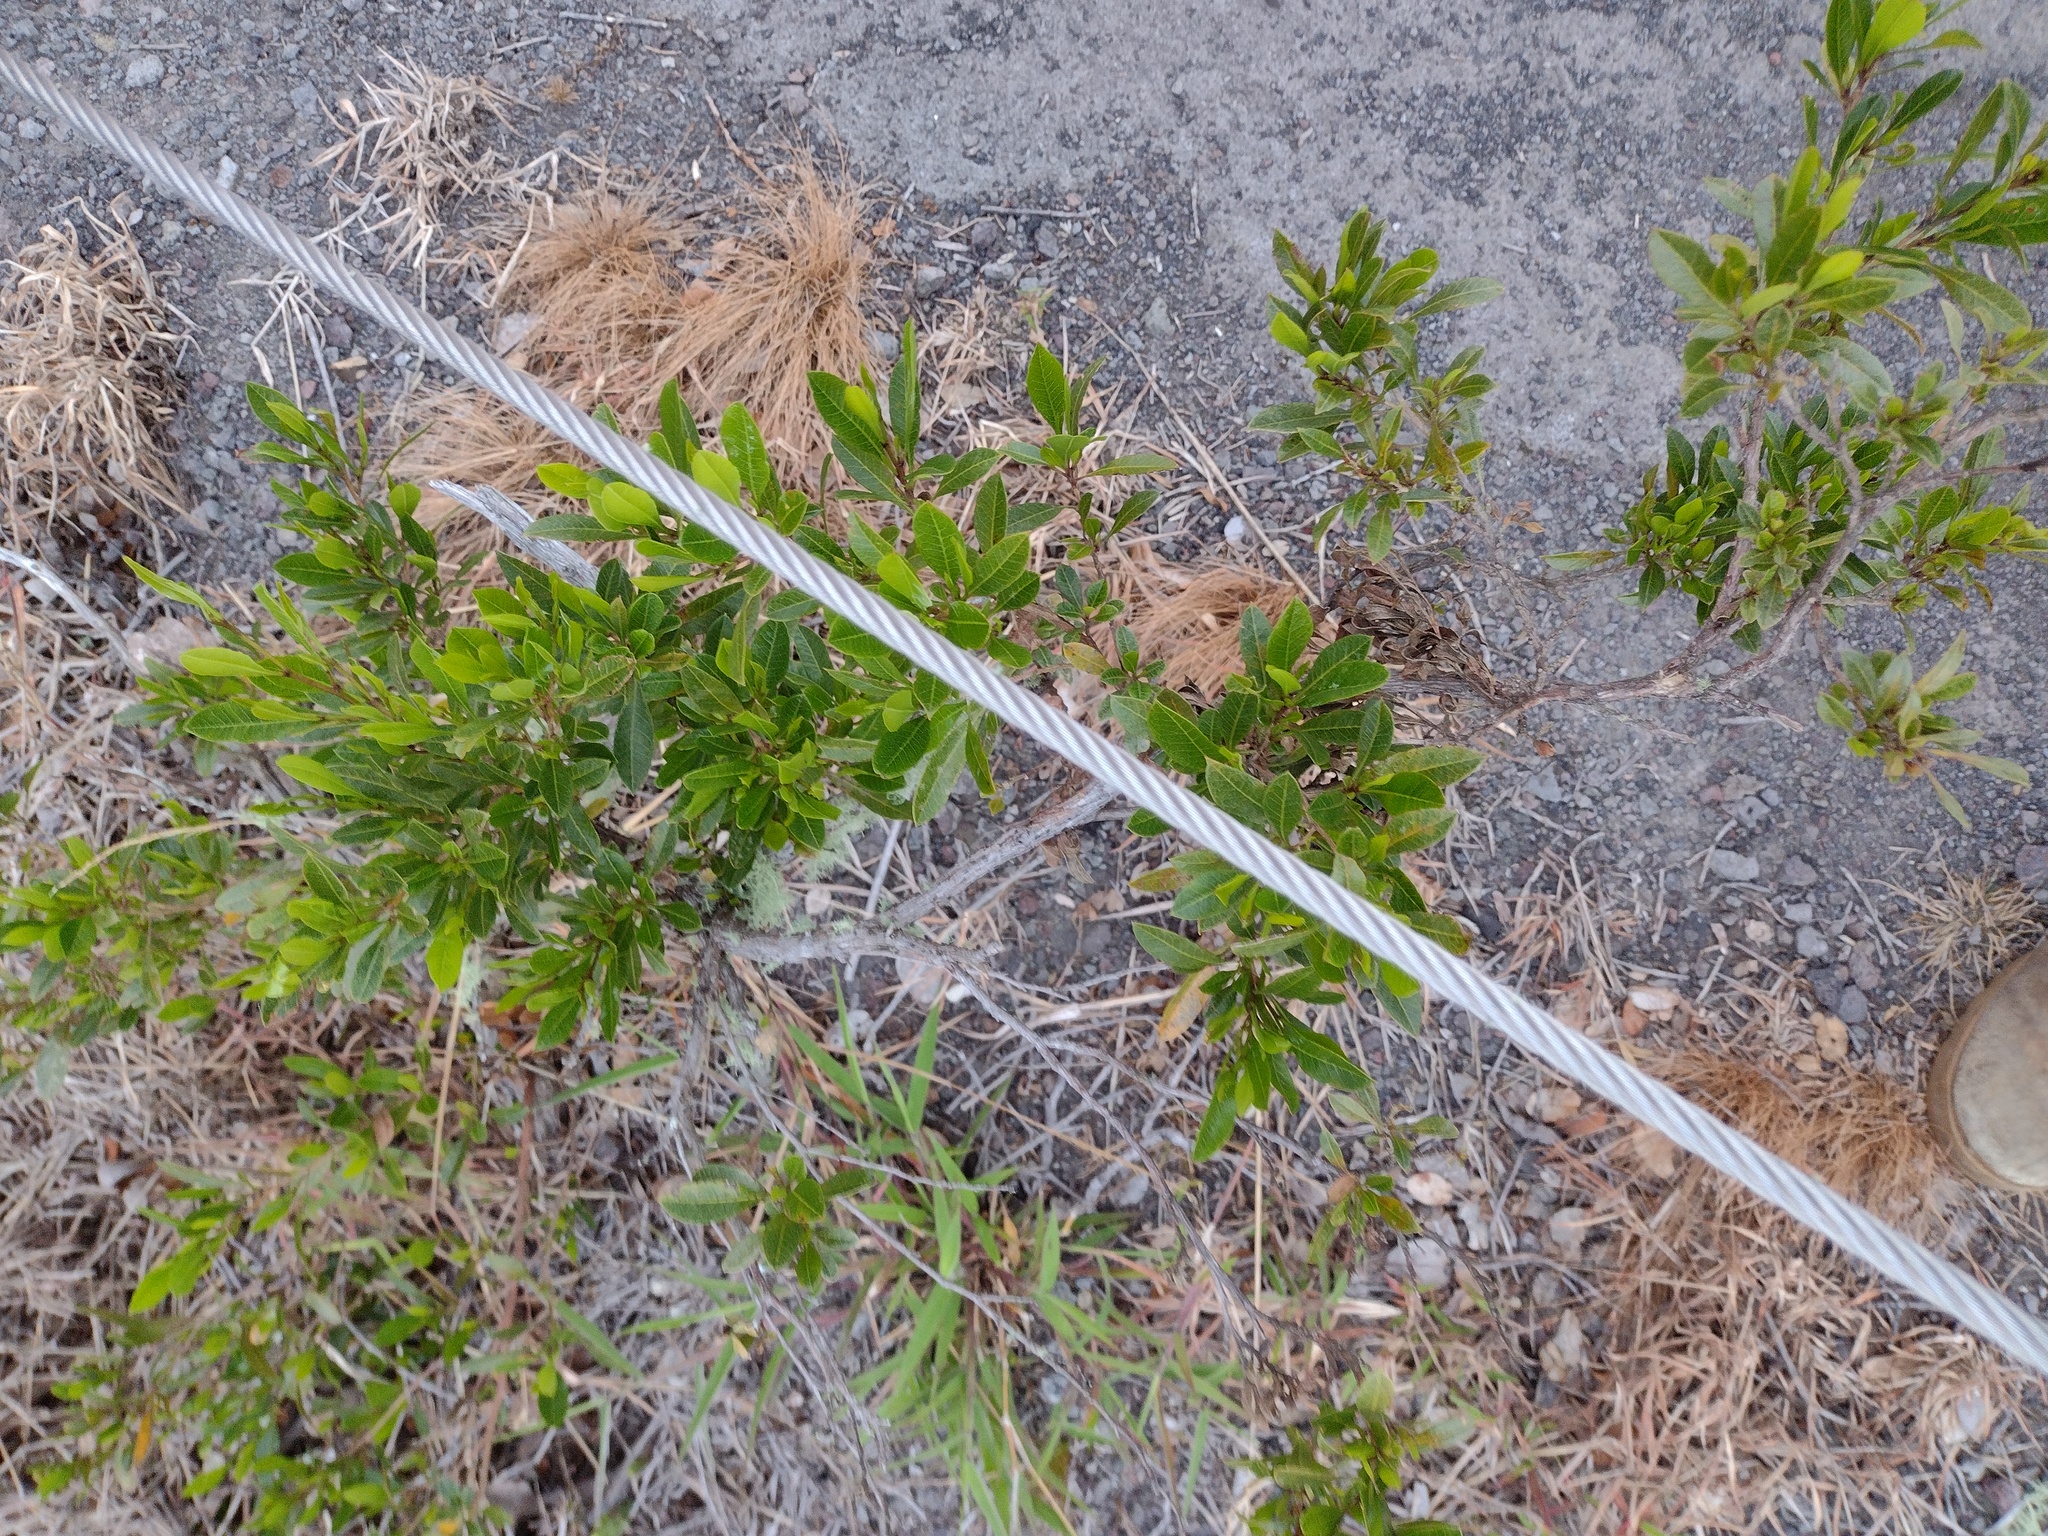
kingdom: Plantae
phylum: Tracheophyta
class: Magnoliopsida
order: Sapindales
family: Sapindaceae
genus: Dodonaea
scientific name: Dodonaea viscosa
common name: Hopbush
